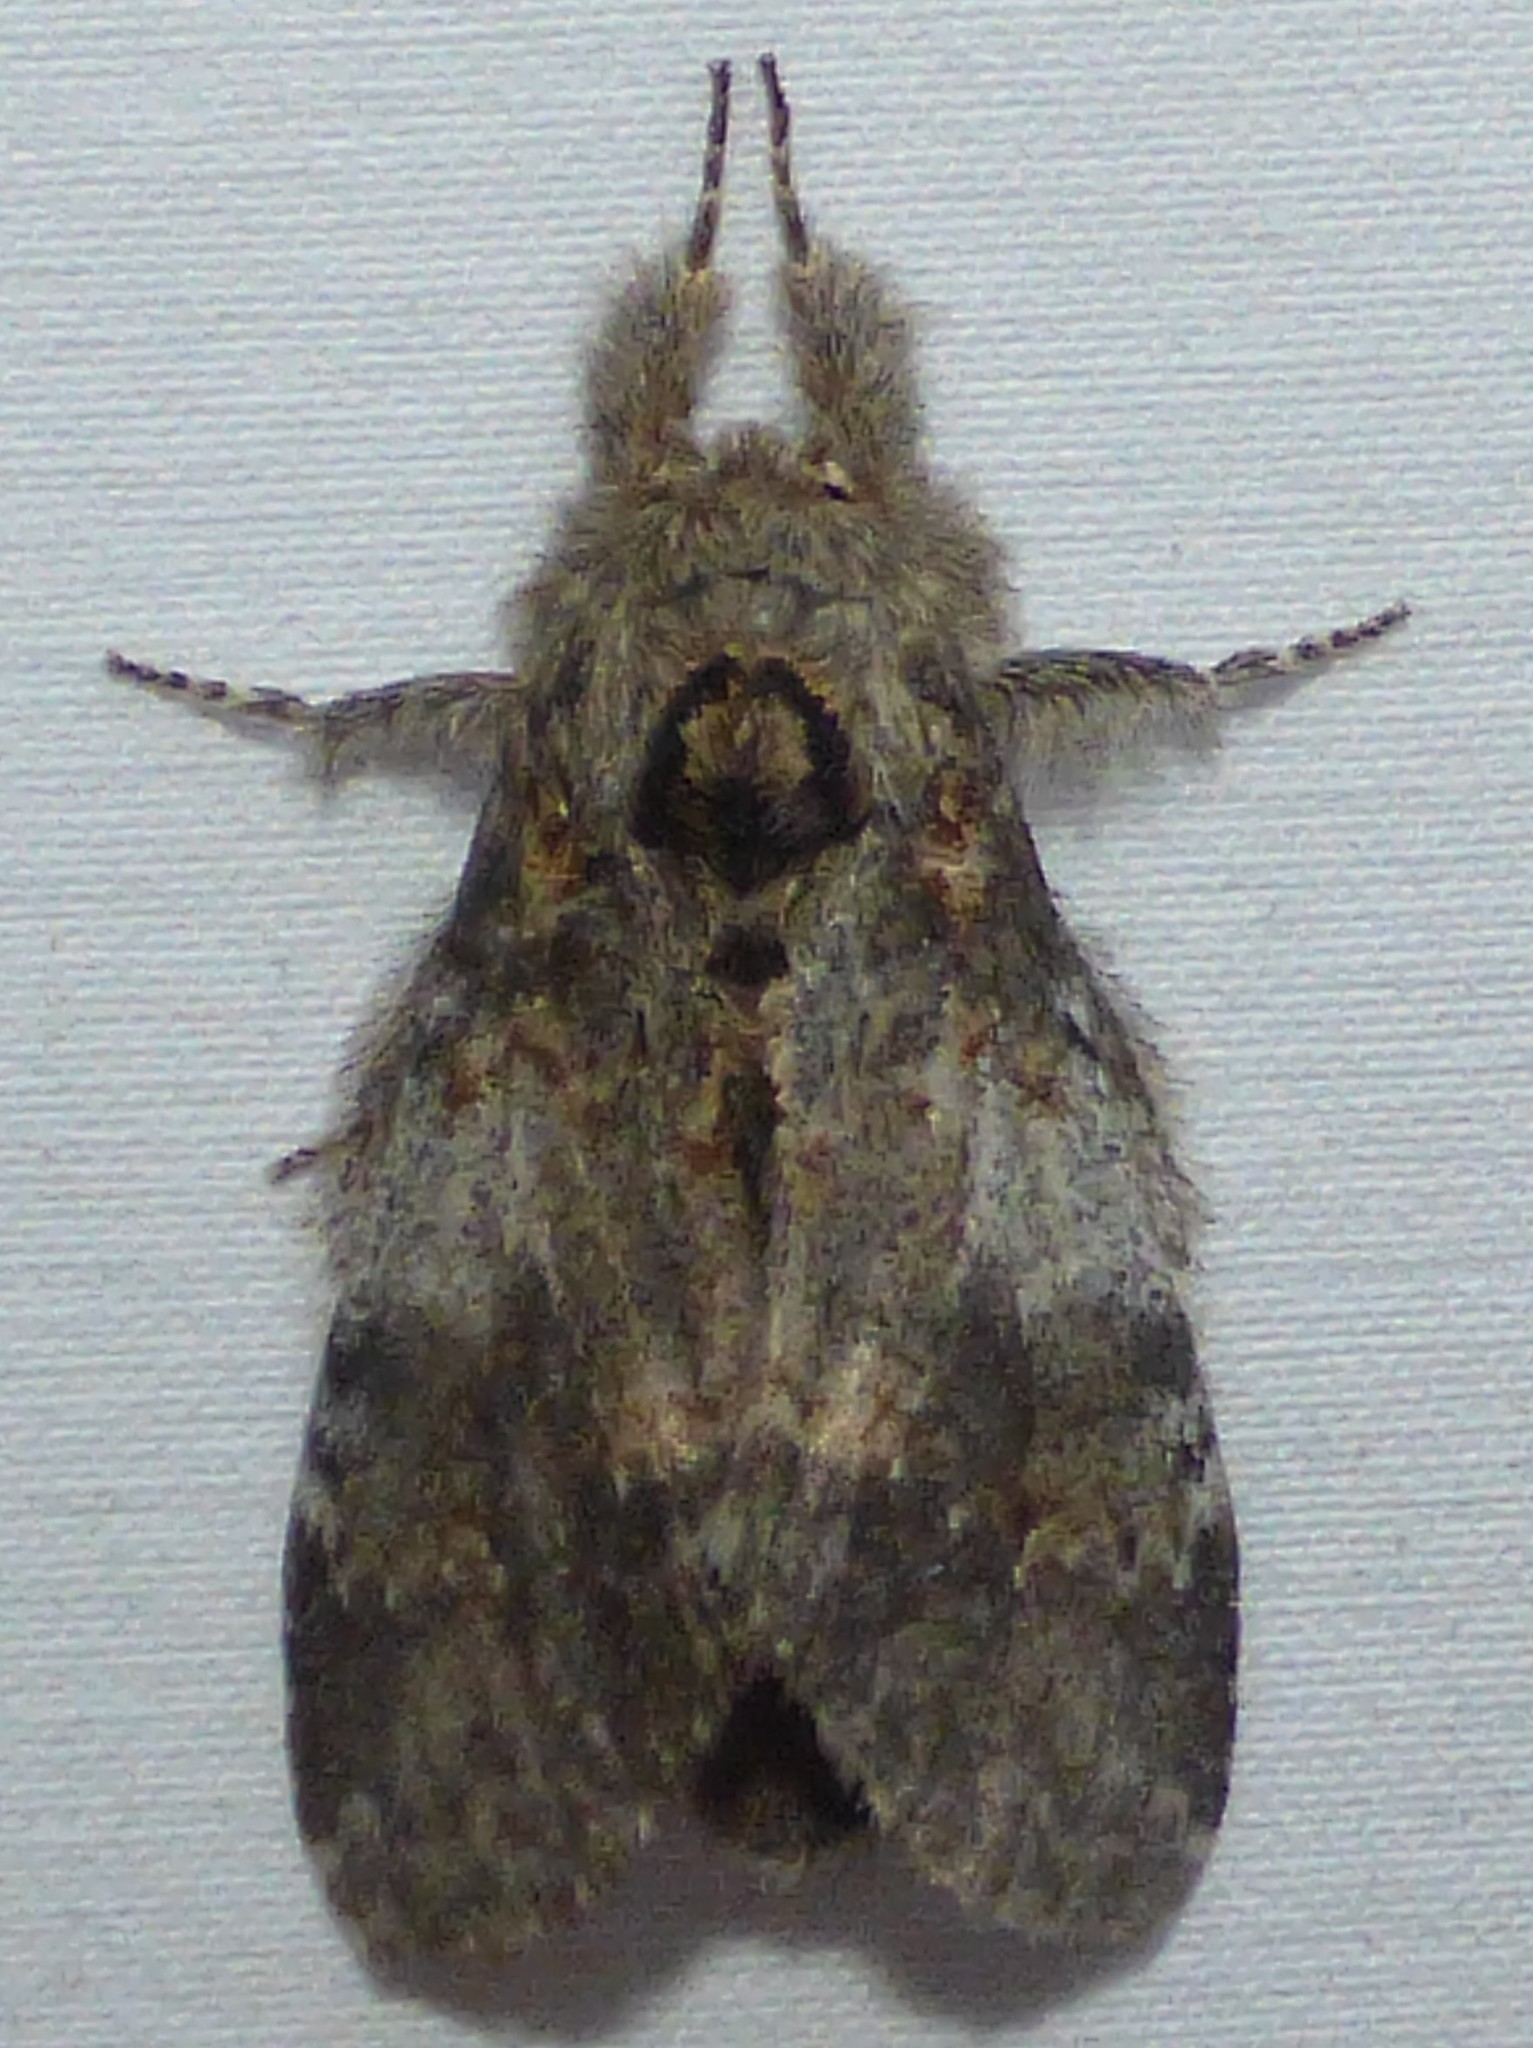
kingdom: Animalia
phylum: Arthropoda
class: Insecta
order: Lepidoptera
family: Notodontidae
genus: Peridea
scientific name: Peridea angulosa
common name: Angulose prominent
